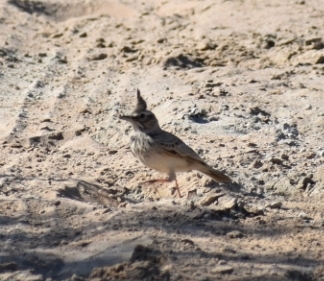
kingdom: Animalia
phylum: Chordata
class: Aves
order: Passeriformes
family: Alaudidae
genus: Galerida
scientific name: Galerida cristata
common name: Crested lark
